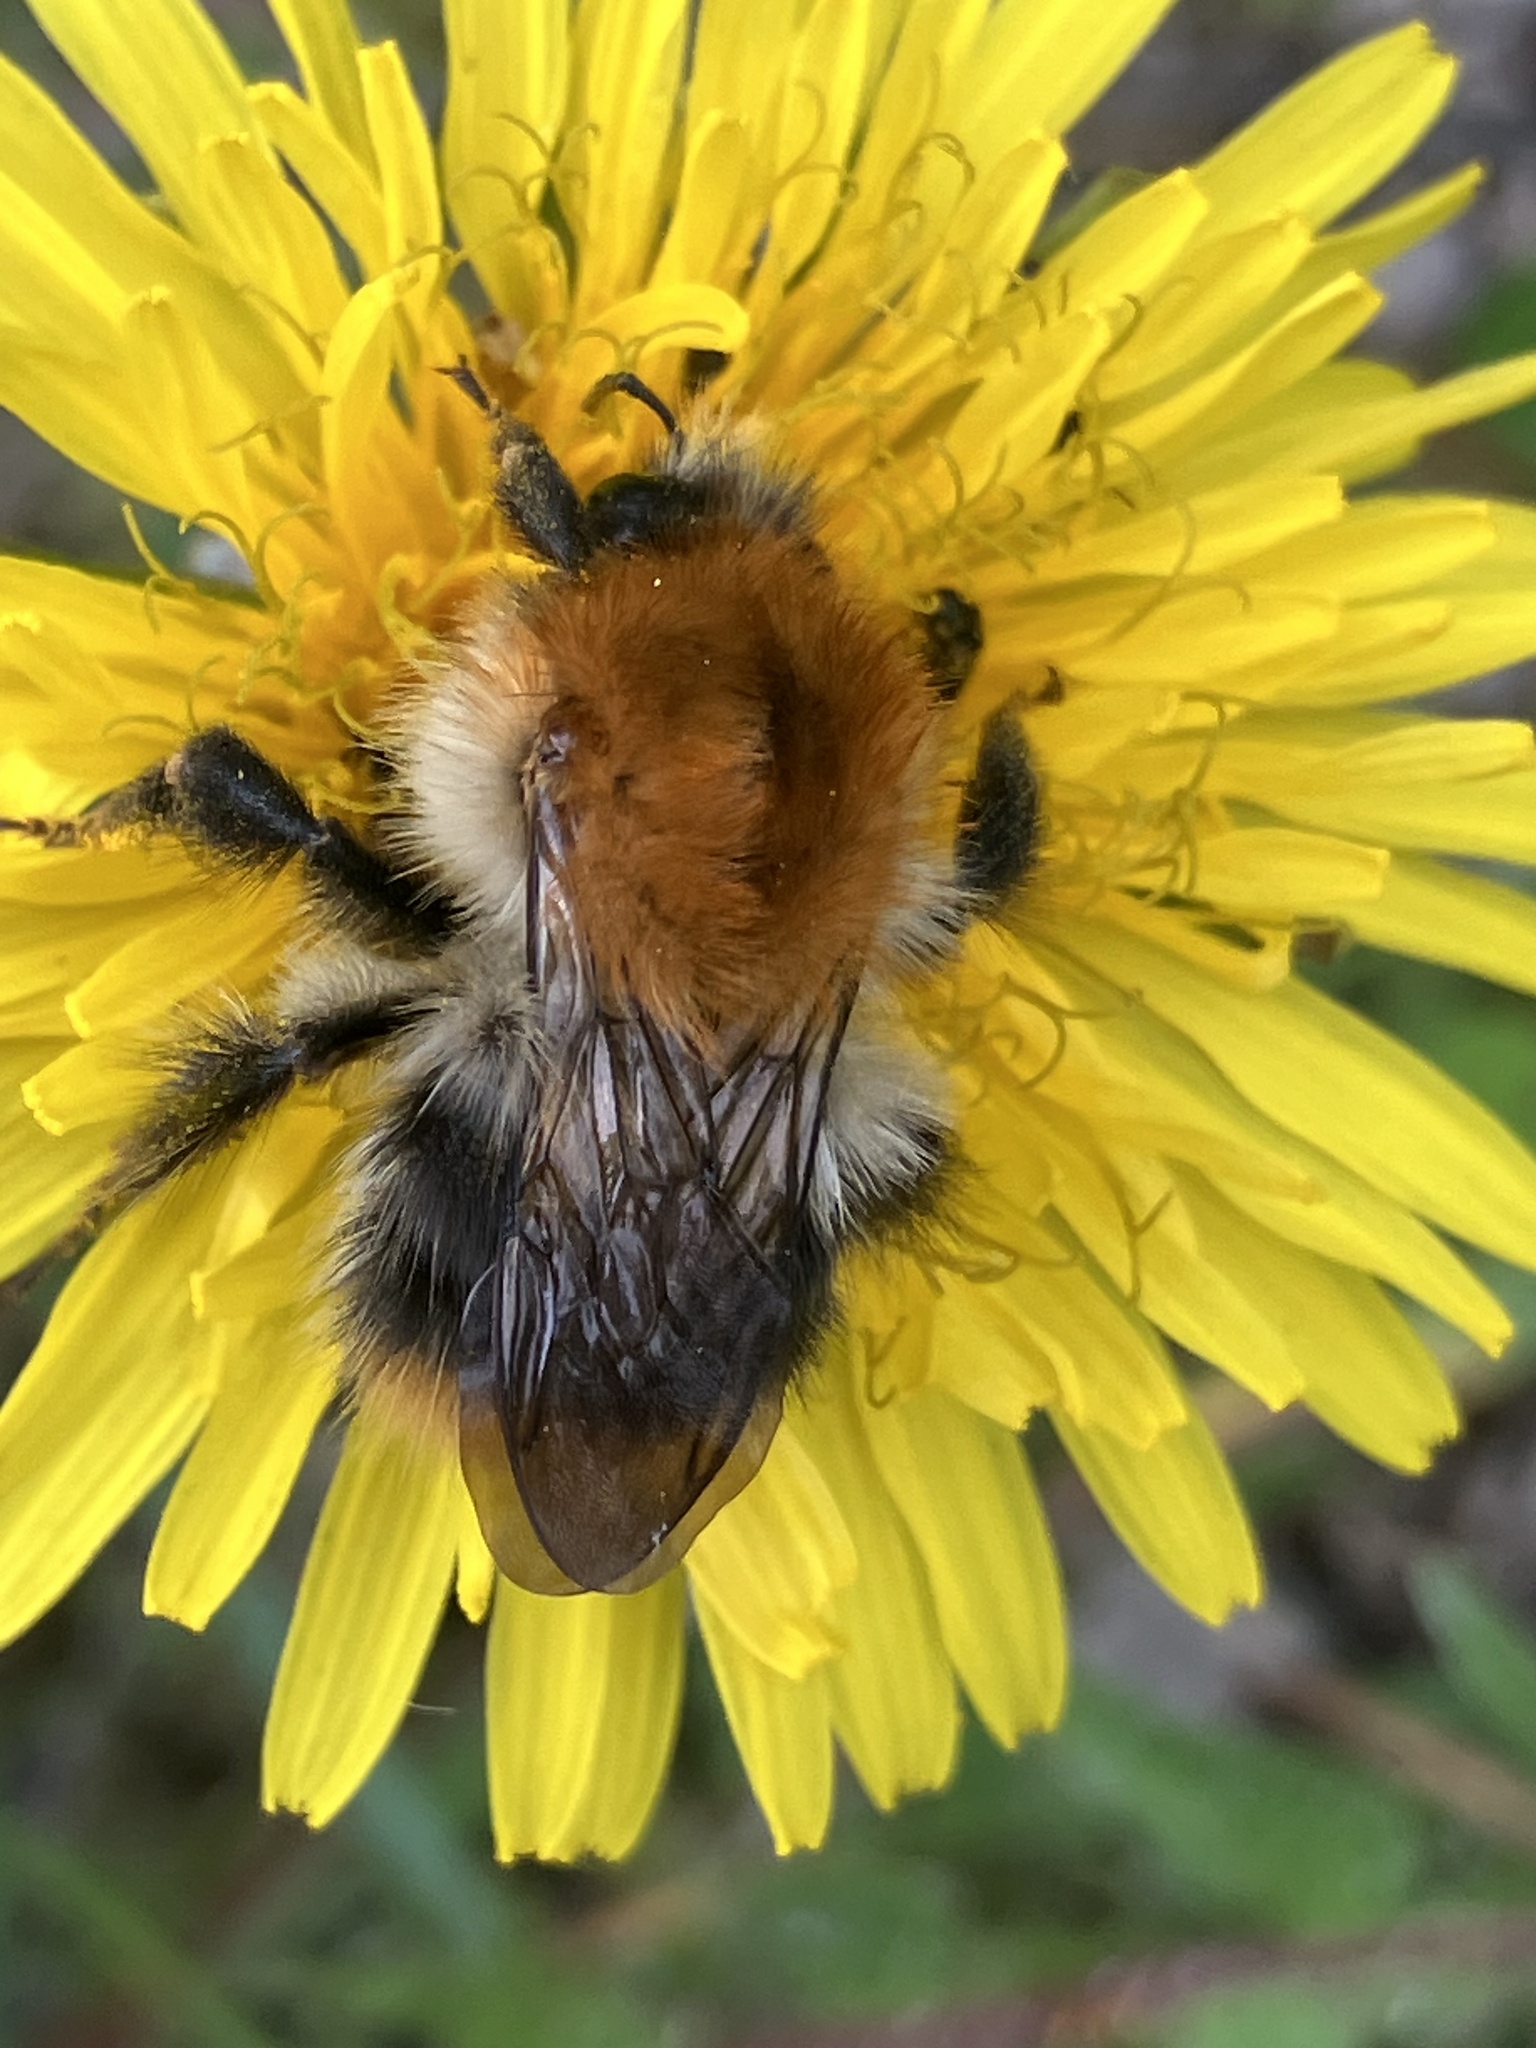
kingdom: Animalia
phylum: Arthropoda
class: Insecta
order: Hymenoptera
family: Apidae
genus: Bombus
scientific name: Bombus pascuorum
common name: Common carder bee
